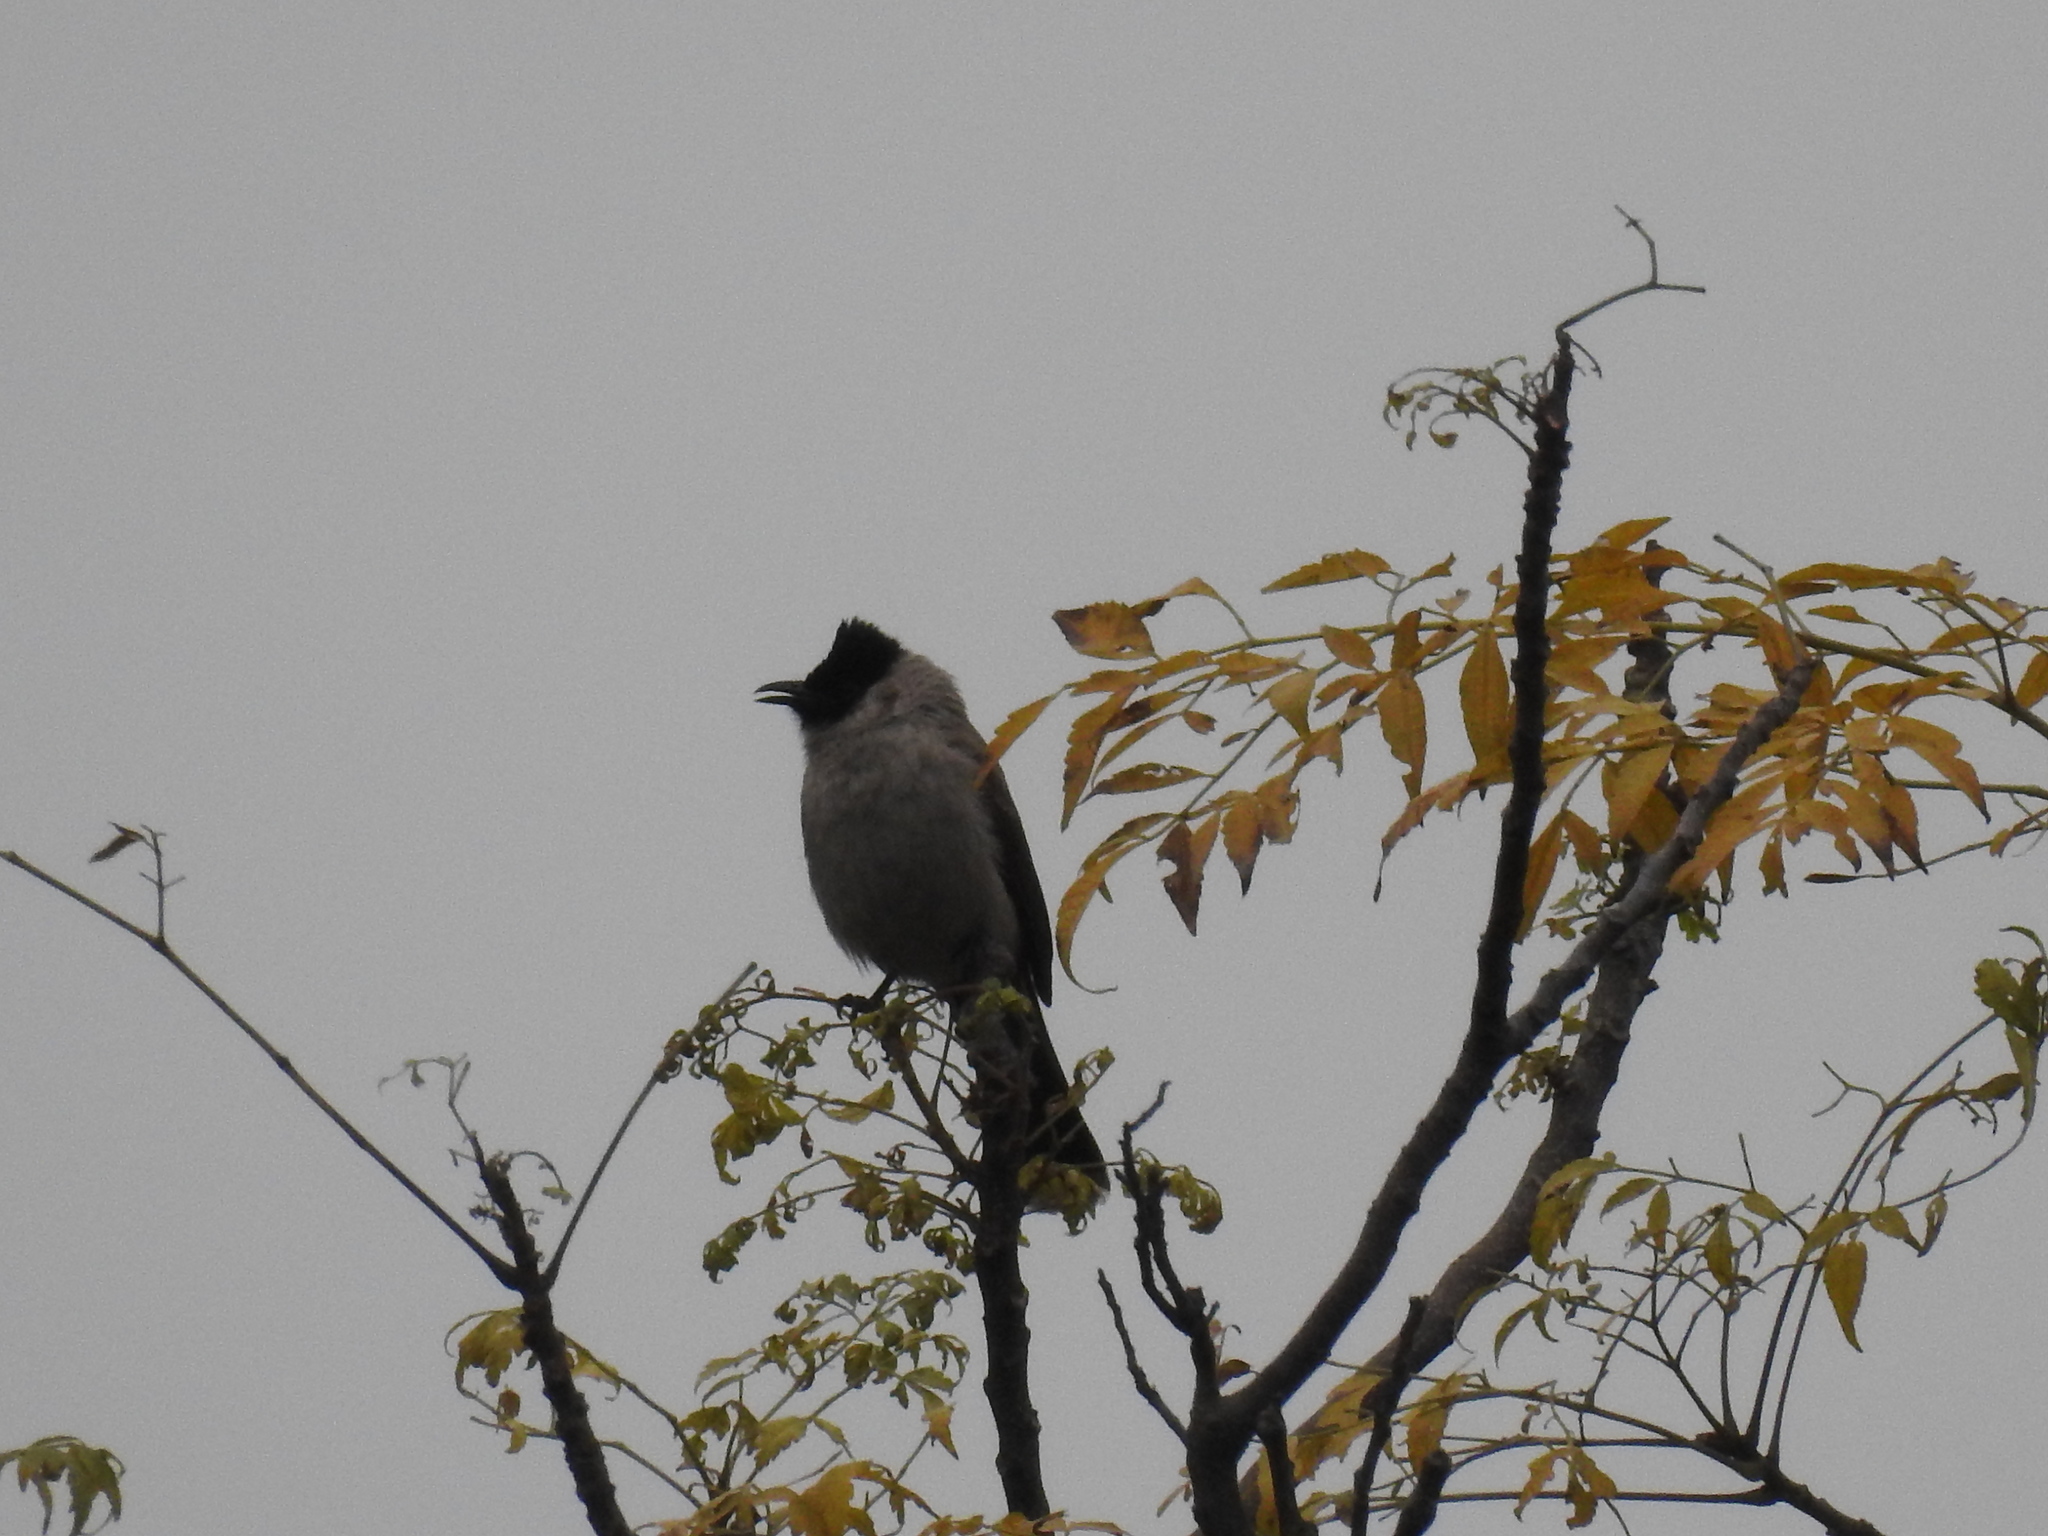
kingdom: Animalia
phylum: Chordata
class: Aves
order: Passeriformes
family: Pycnonotidae
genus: Pycnonotus
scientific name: Pycnonotus aurigaster
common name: Sooty-headed bulbul
